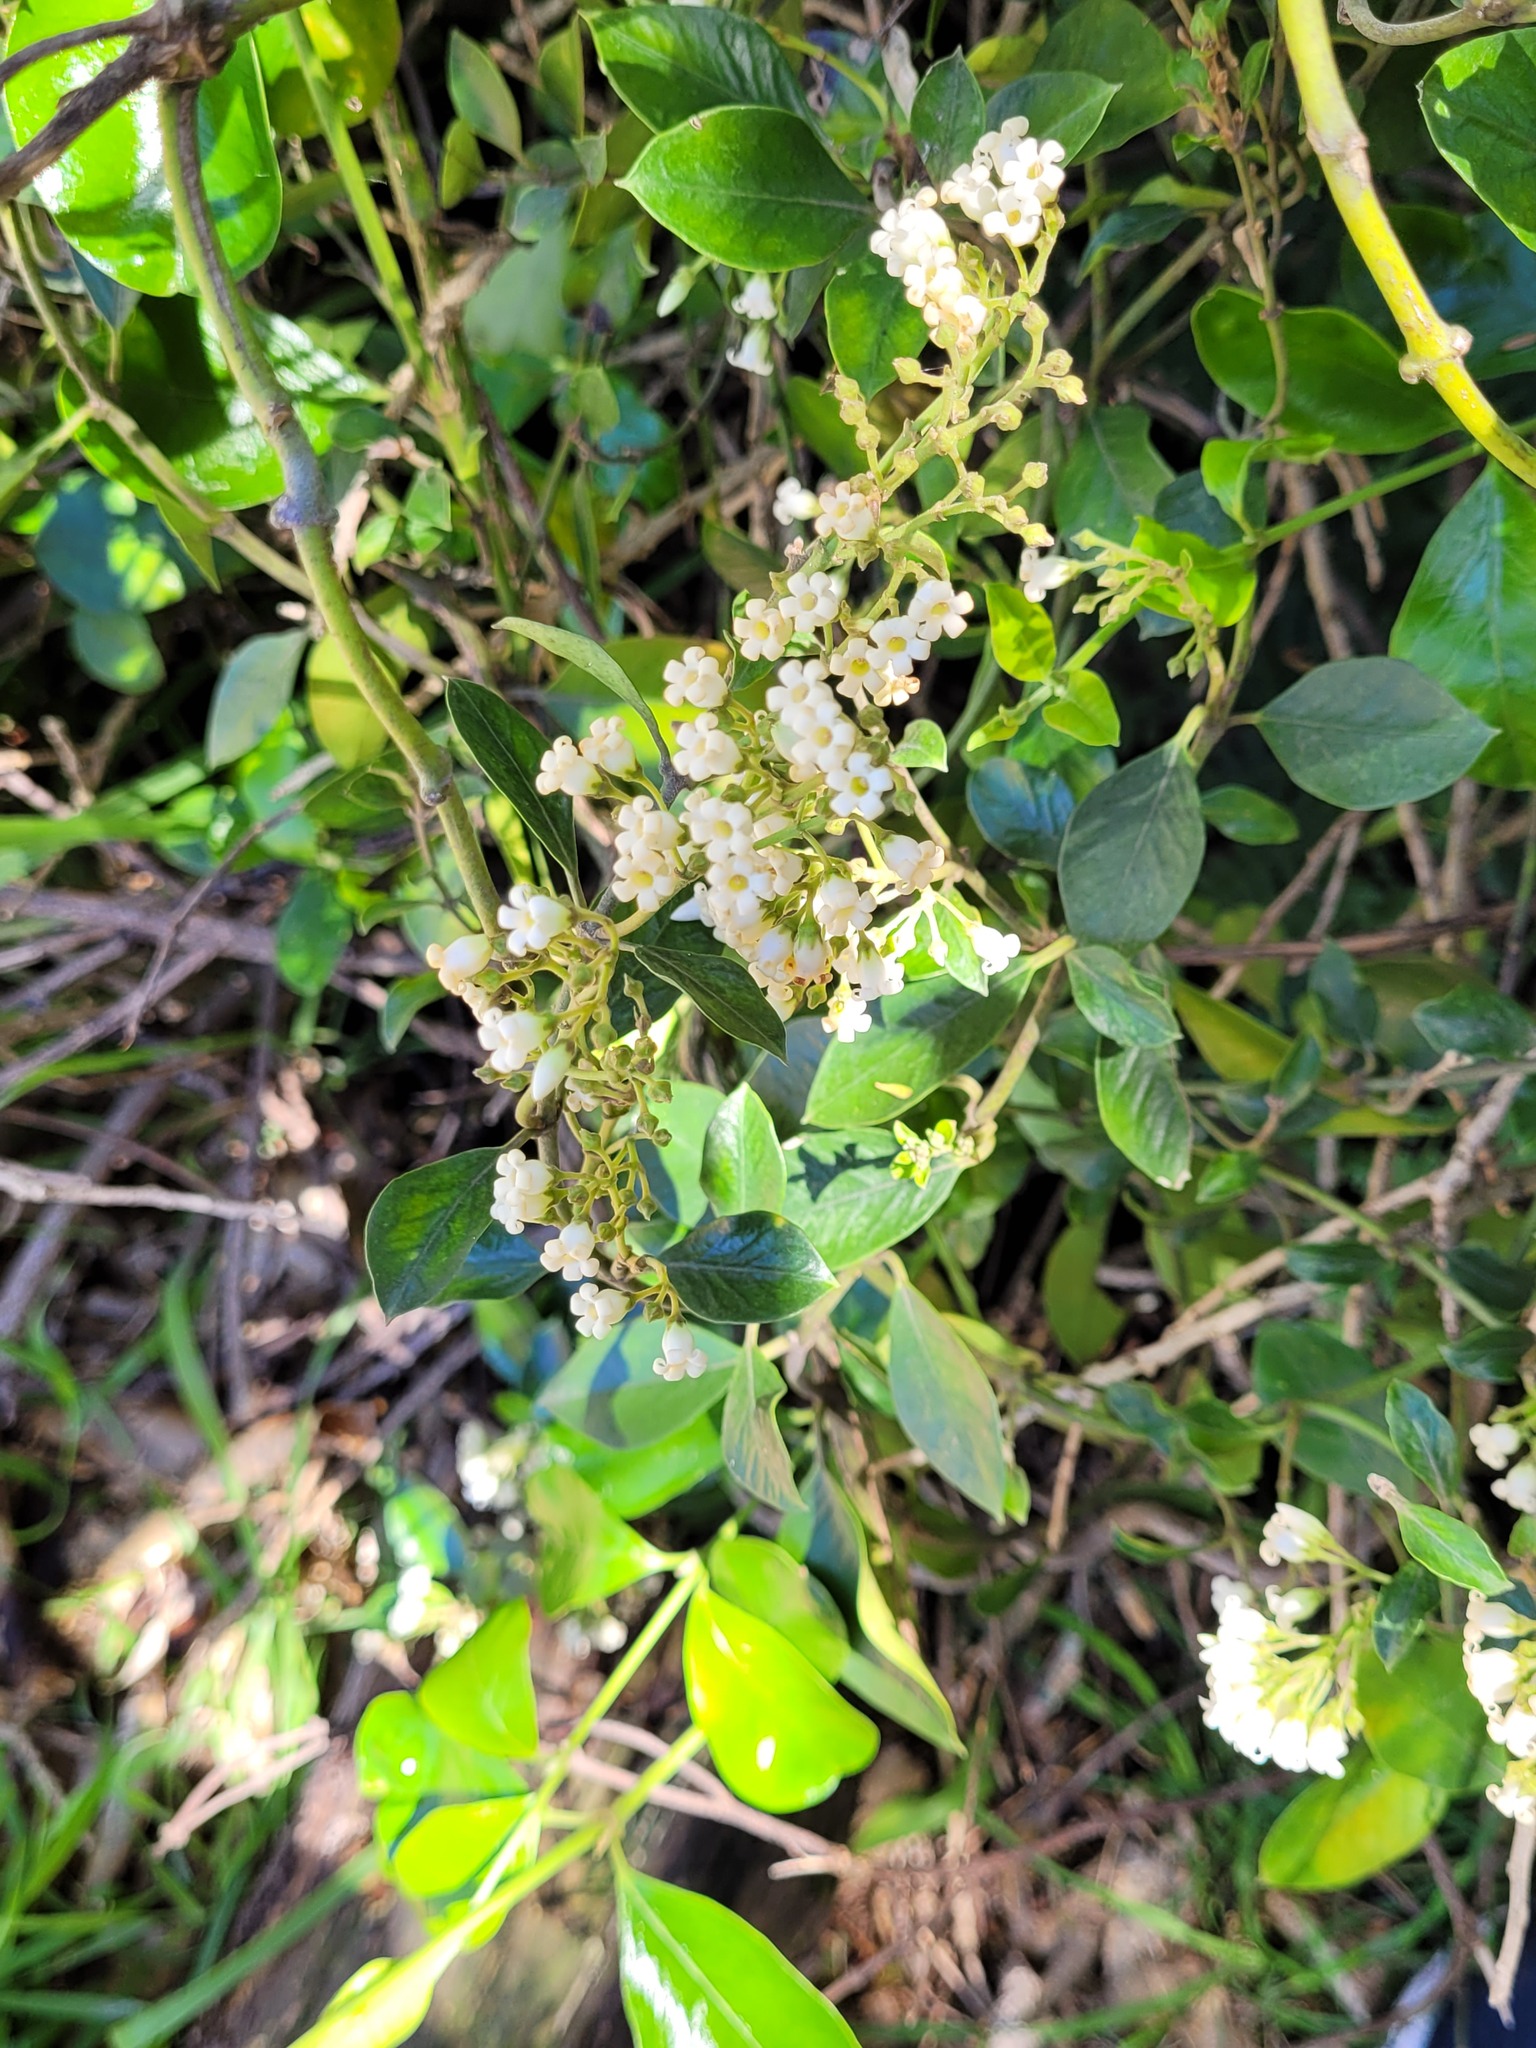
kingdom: Plantae
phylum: Tracheophyta
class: Magnoliopsida
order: Gentianales
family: Apocynaceae
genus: Parsonsia
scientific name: Parsonsia heterophylla
